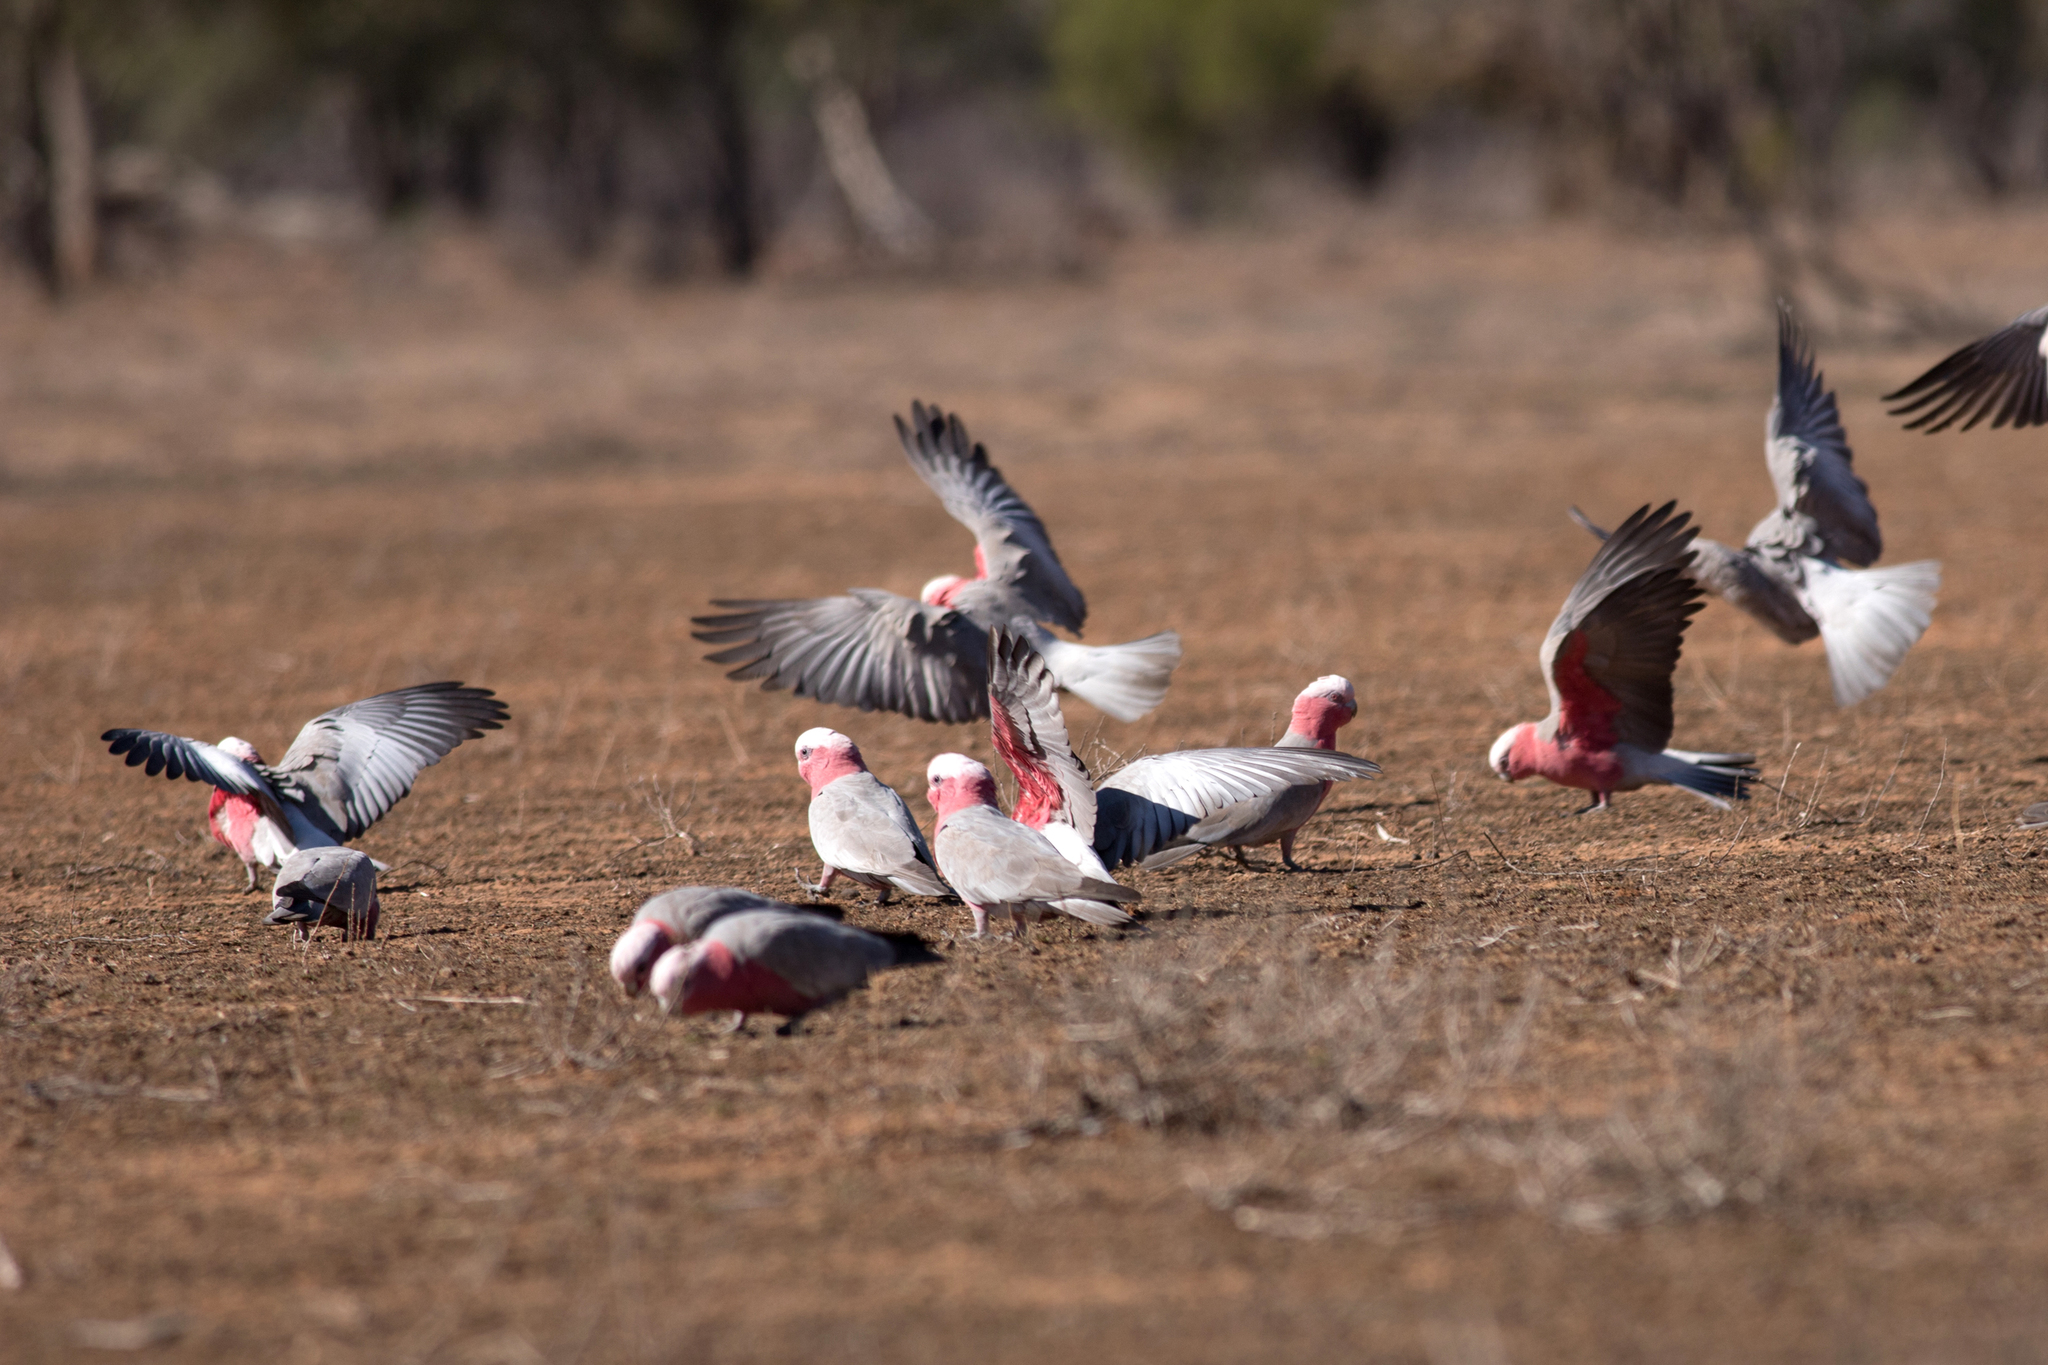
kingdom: Animalia
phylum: Chordata
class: Aves
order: Psittaciformes
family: Psittacidae
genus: Eolophus
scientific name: Eolophus roseicapilla
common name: Galah
